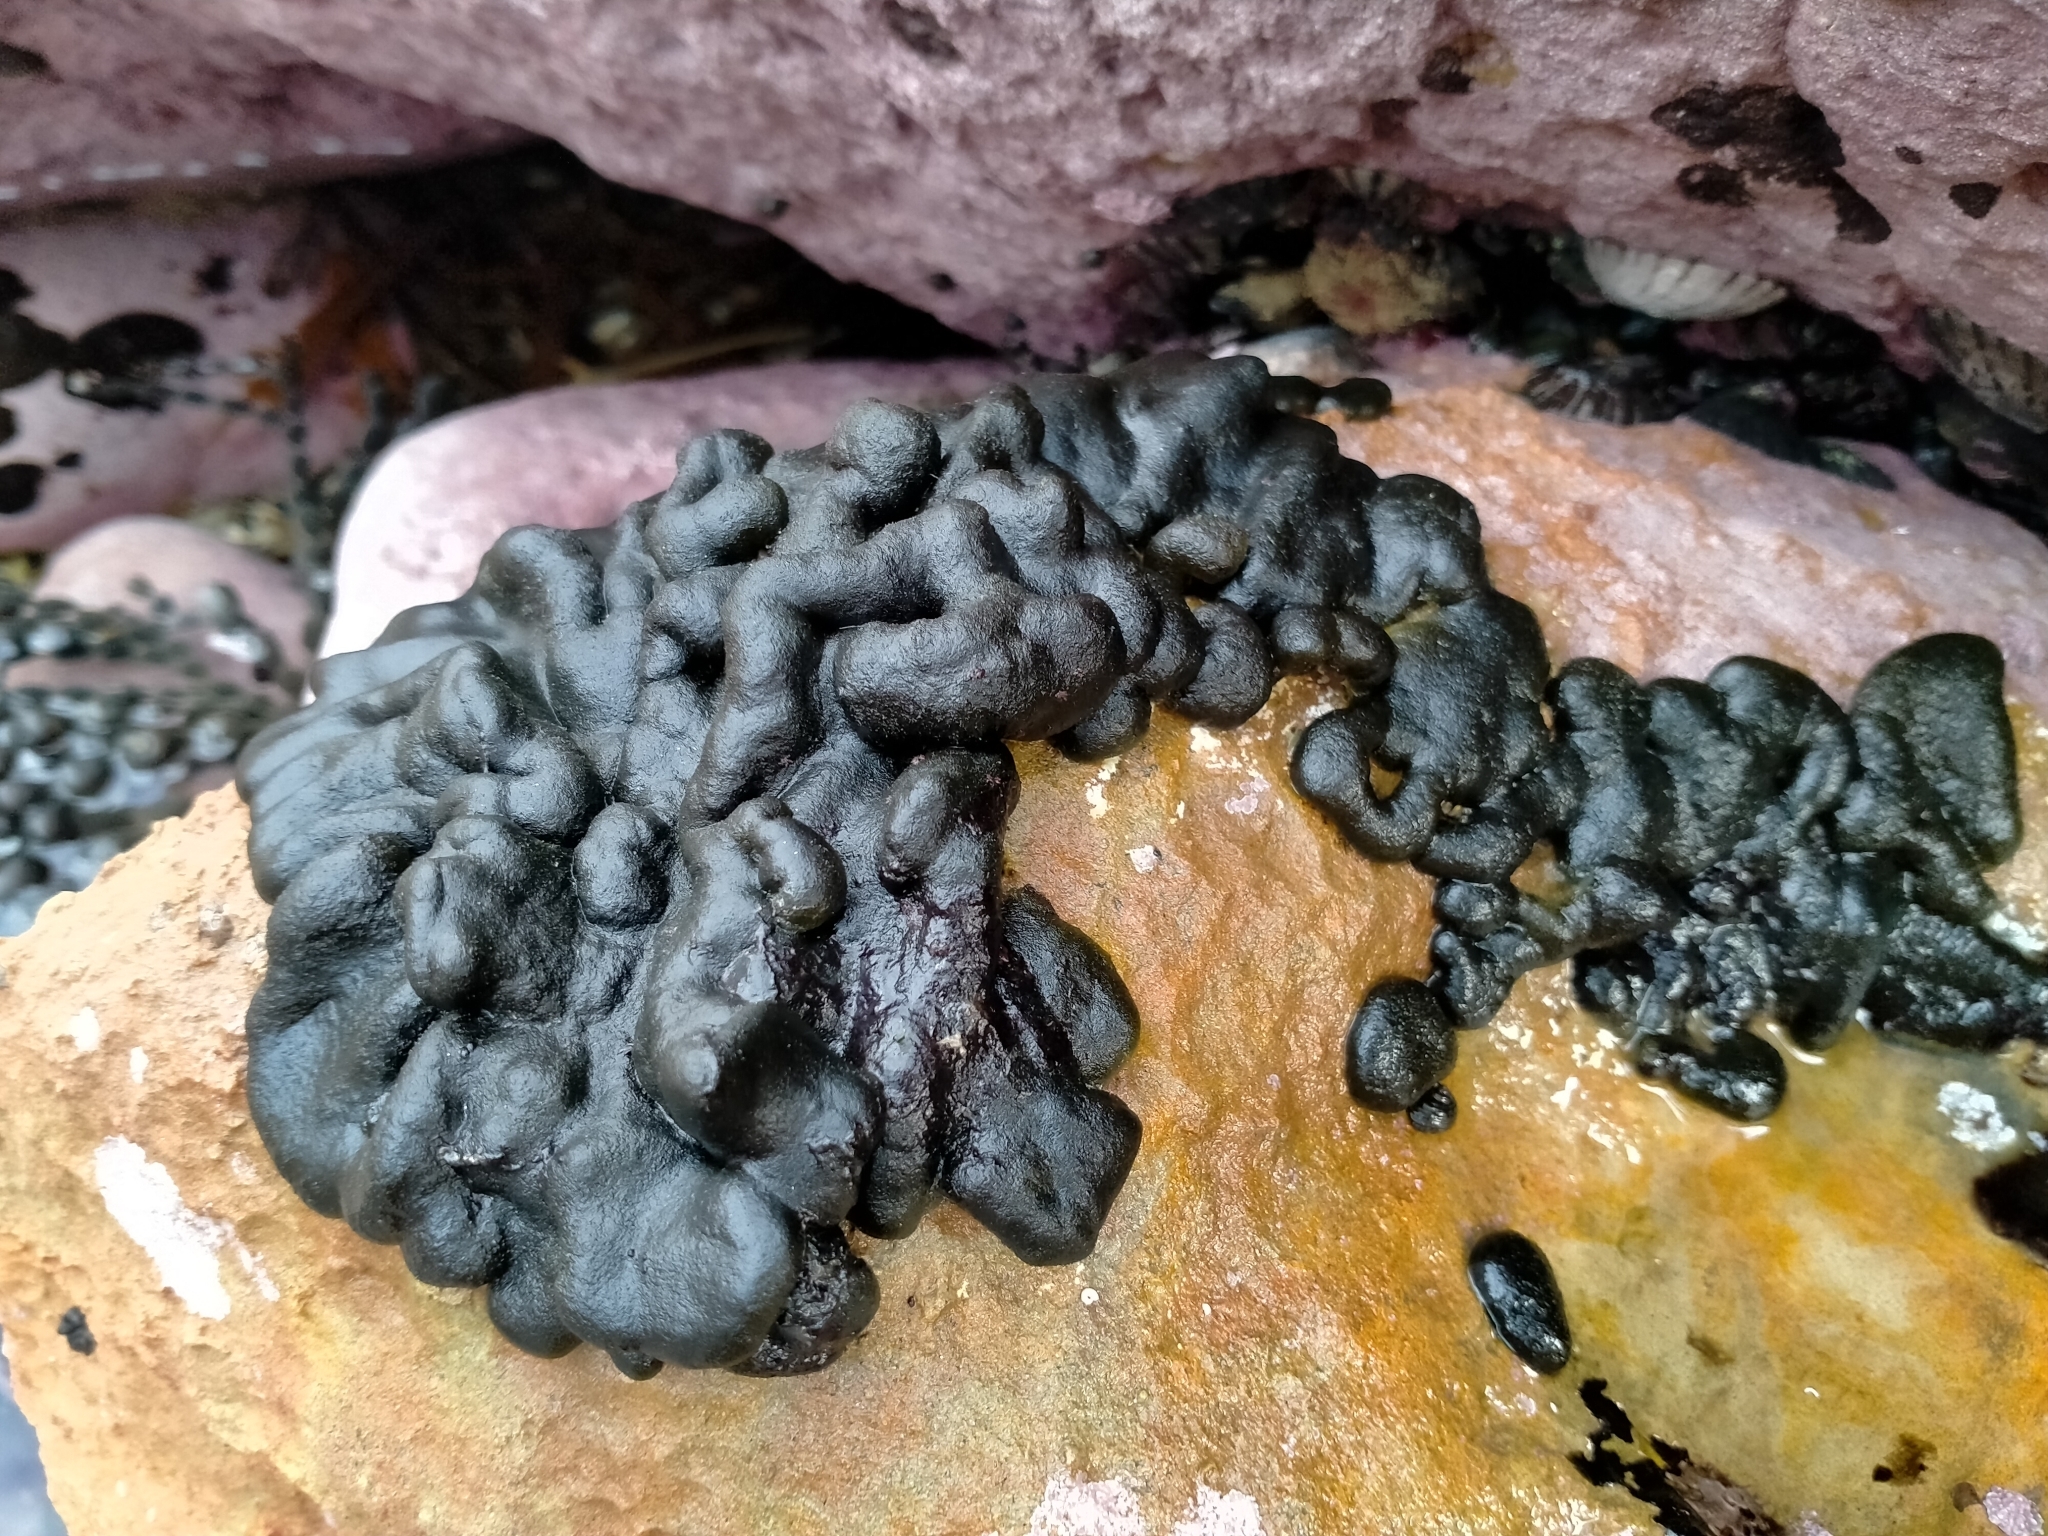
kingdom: Plantae
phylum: Chlorophyta
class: Ulvophyceae
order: Bryopsidales
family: Codiaceae
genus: Codium
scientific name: Codium convolutum
